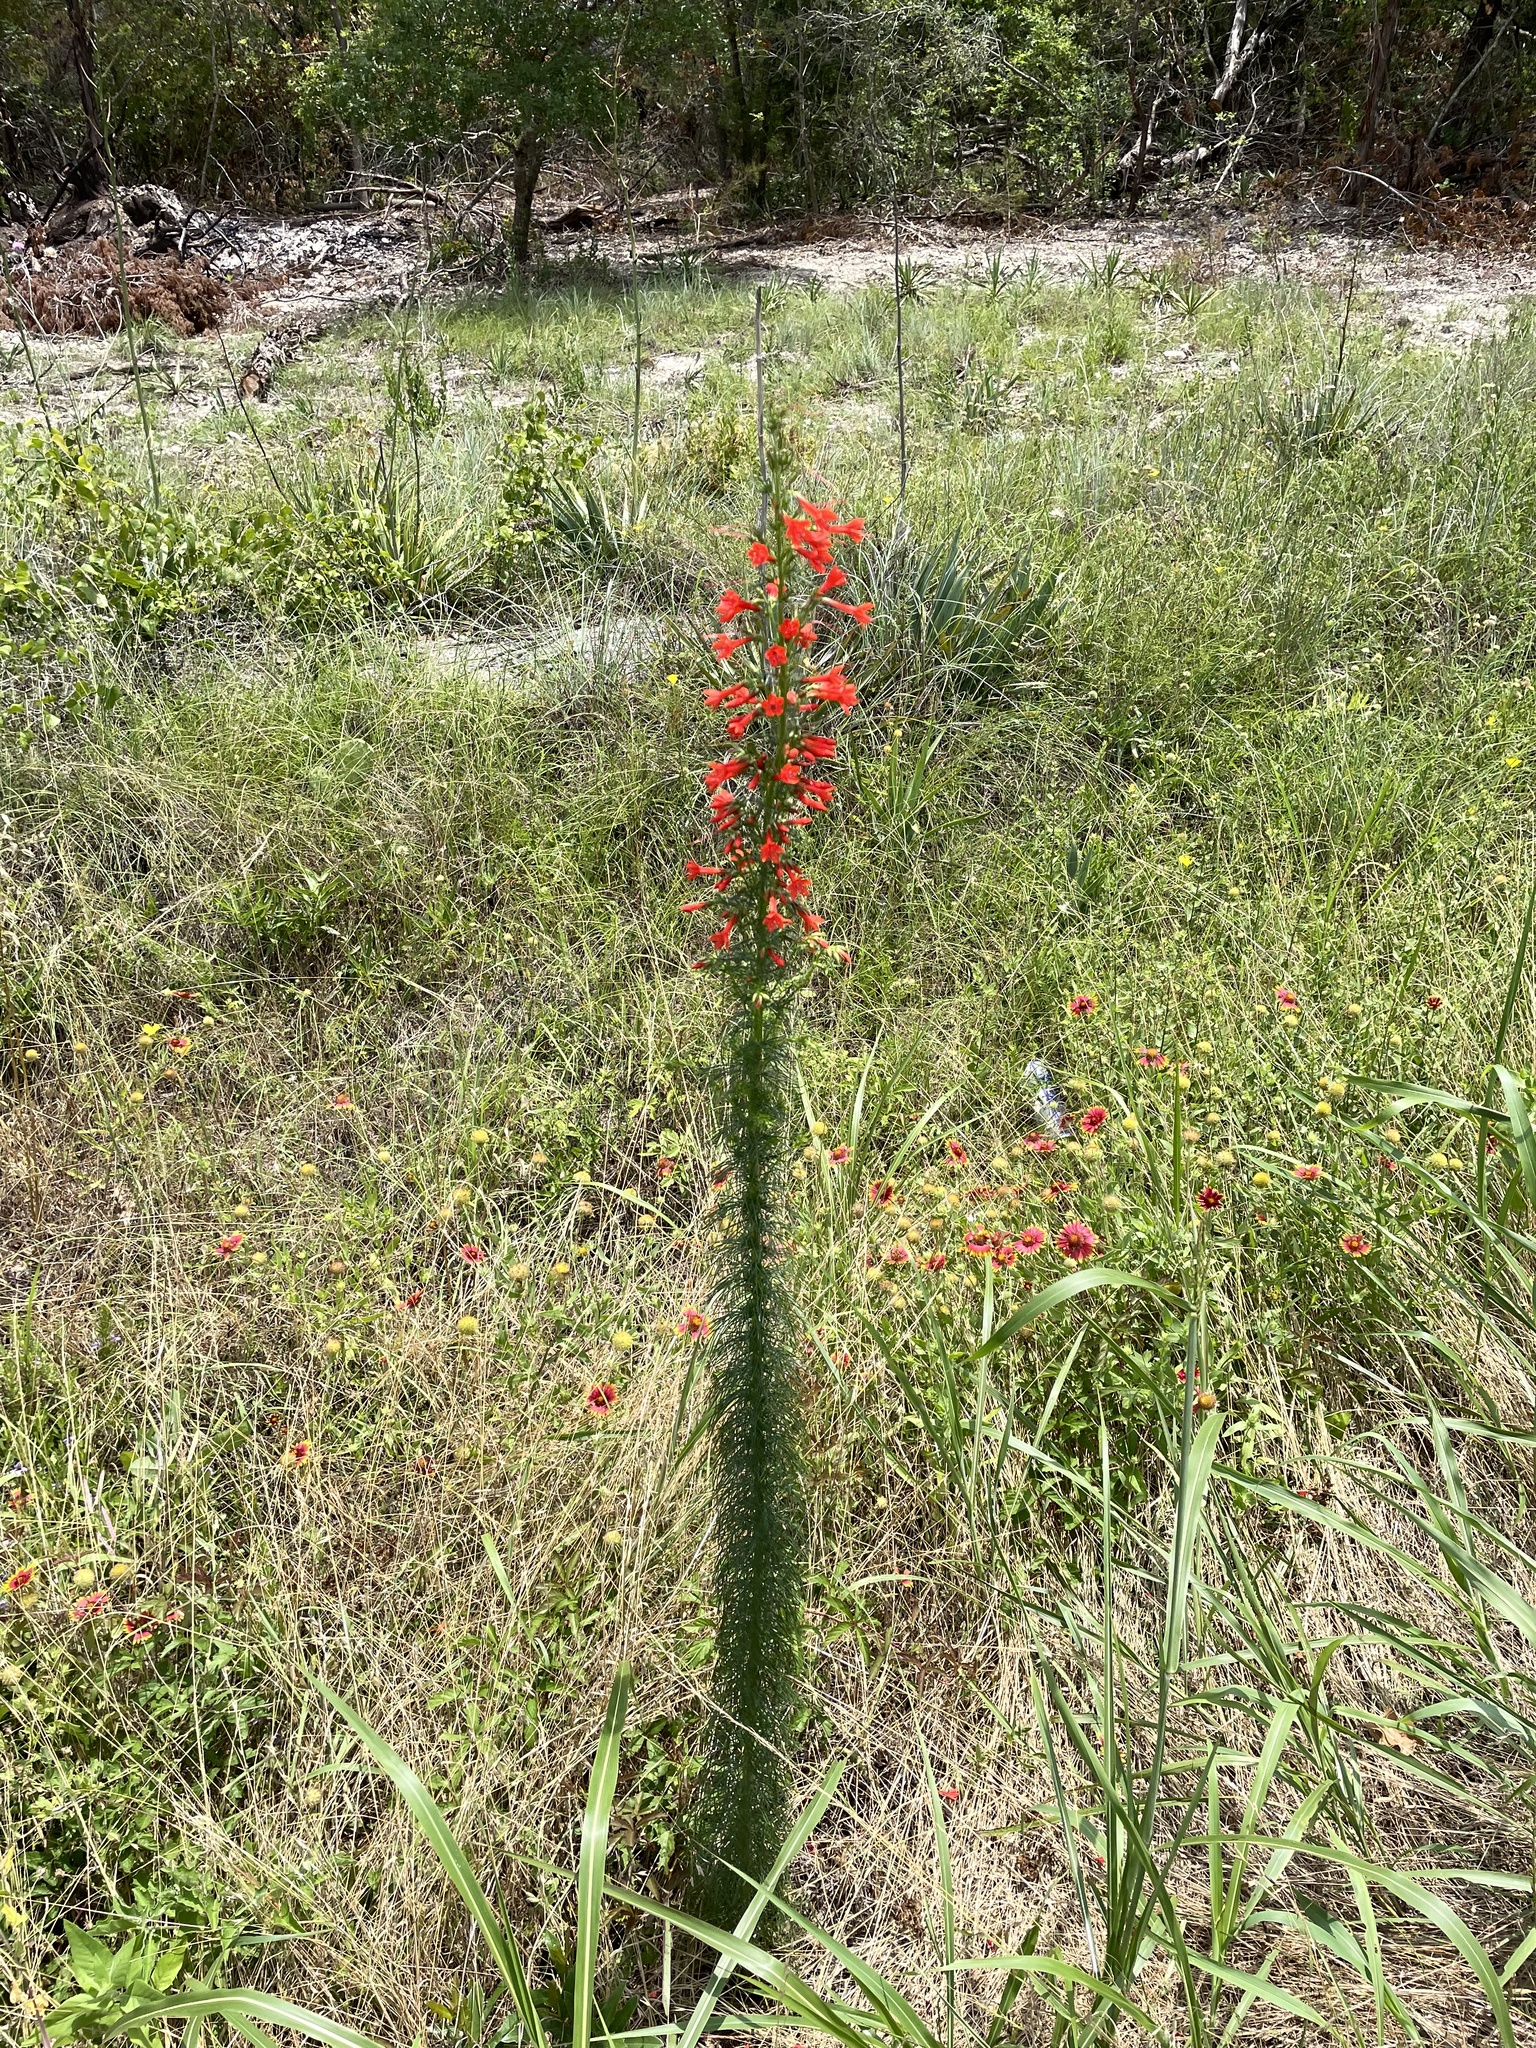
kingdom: Plantae
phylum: Tracheophyta
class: Magnoliopsida
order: Ericales
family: Polemoniaceae
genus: Ipomopsis
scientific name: Ipomopsis rubra
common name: Skyrocket
